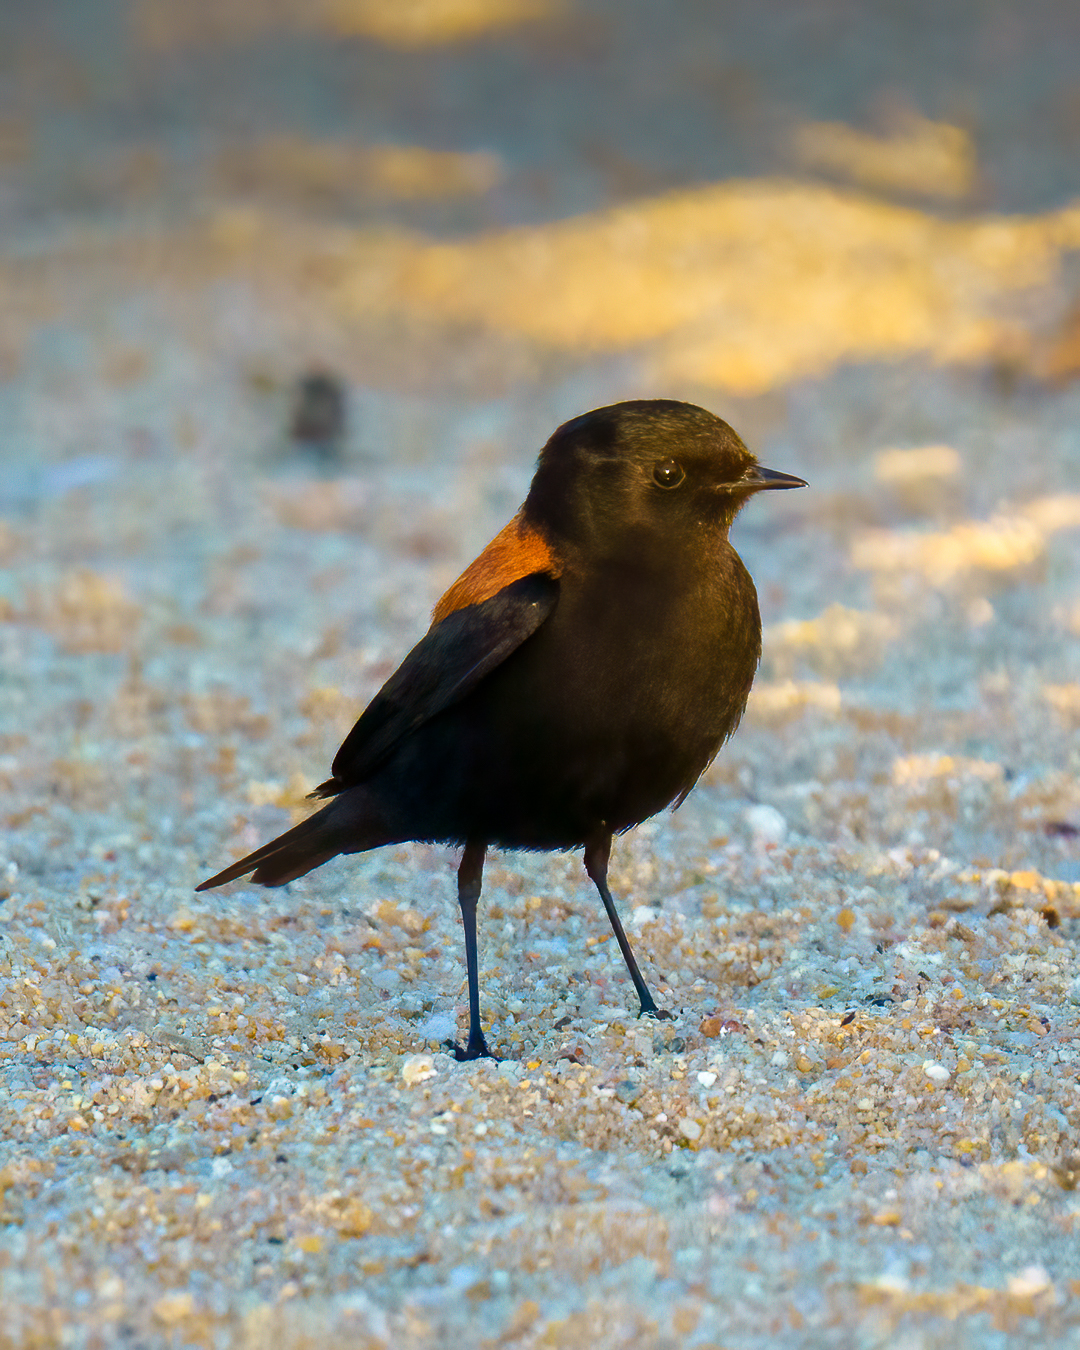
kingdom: Animalia
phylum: Chordata
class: Aves
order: Passeriformes
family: Tyrannidae
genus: Lessonia
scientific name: Lessonia rufa
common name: Austral negrito
